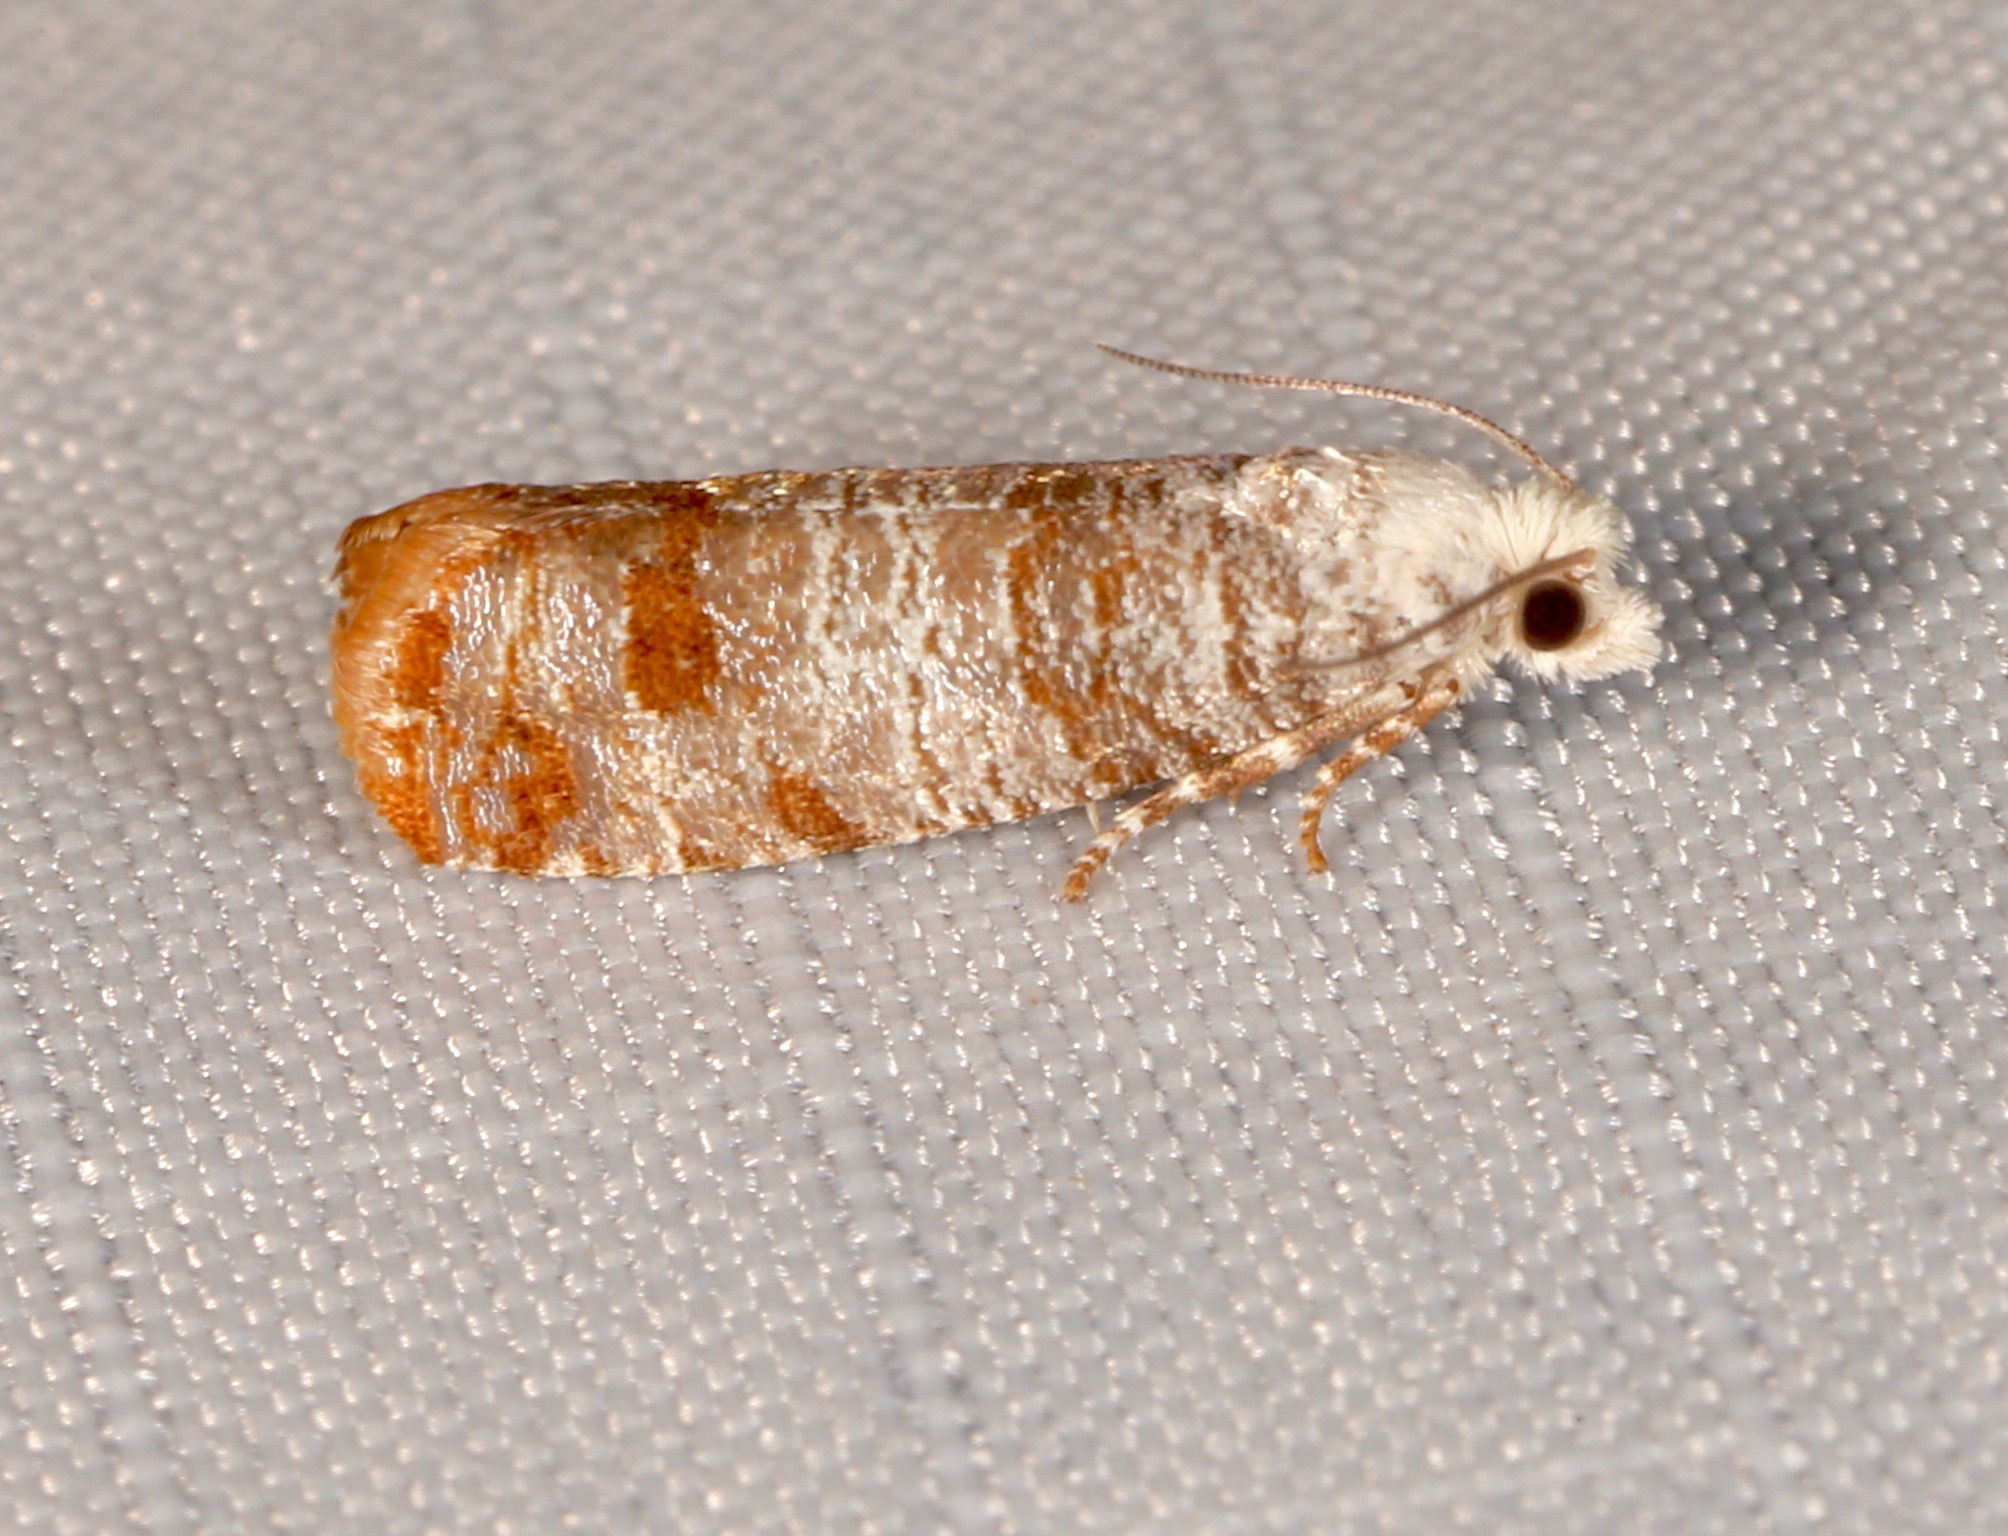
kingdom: Animalia
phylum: Arthropoda
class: Insecta
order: Lepidoptera
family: Tortricidae
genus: Retinia
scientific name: Retinia taedana
